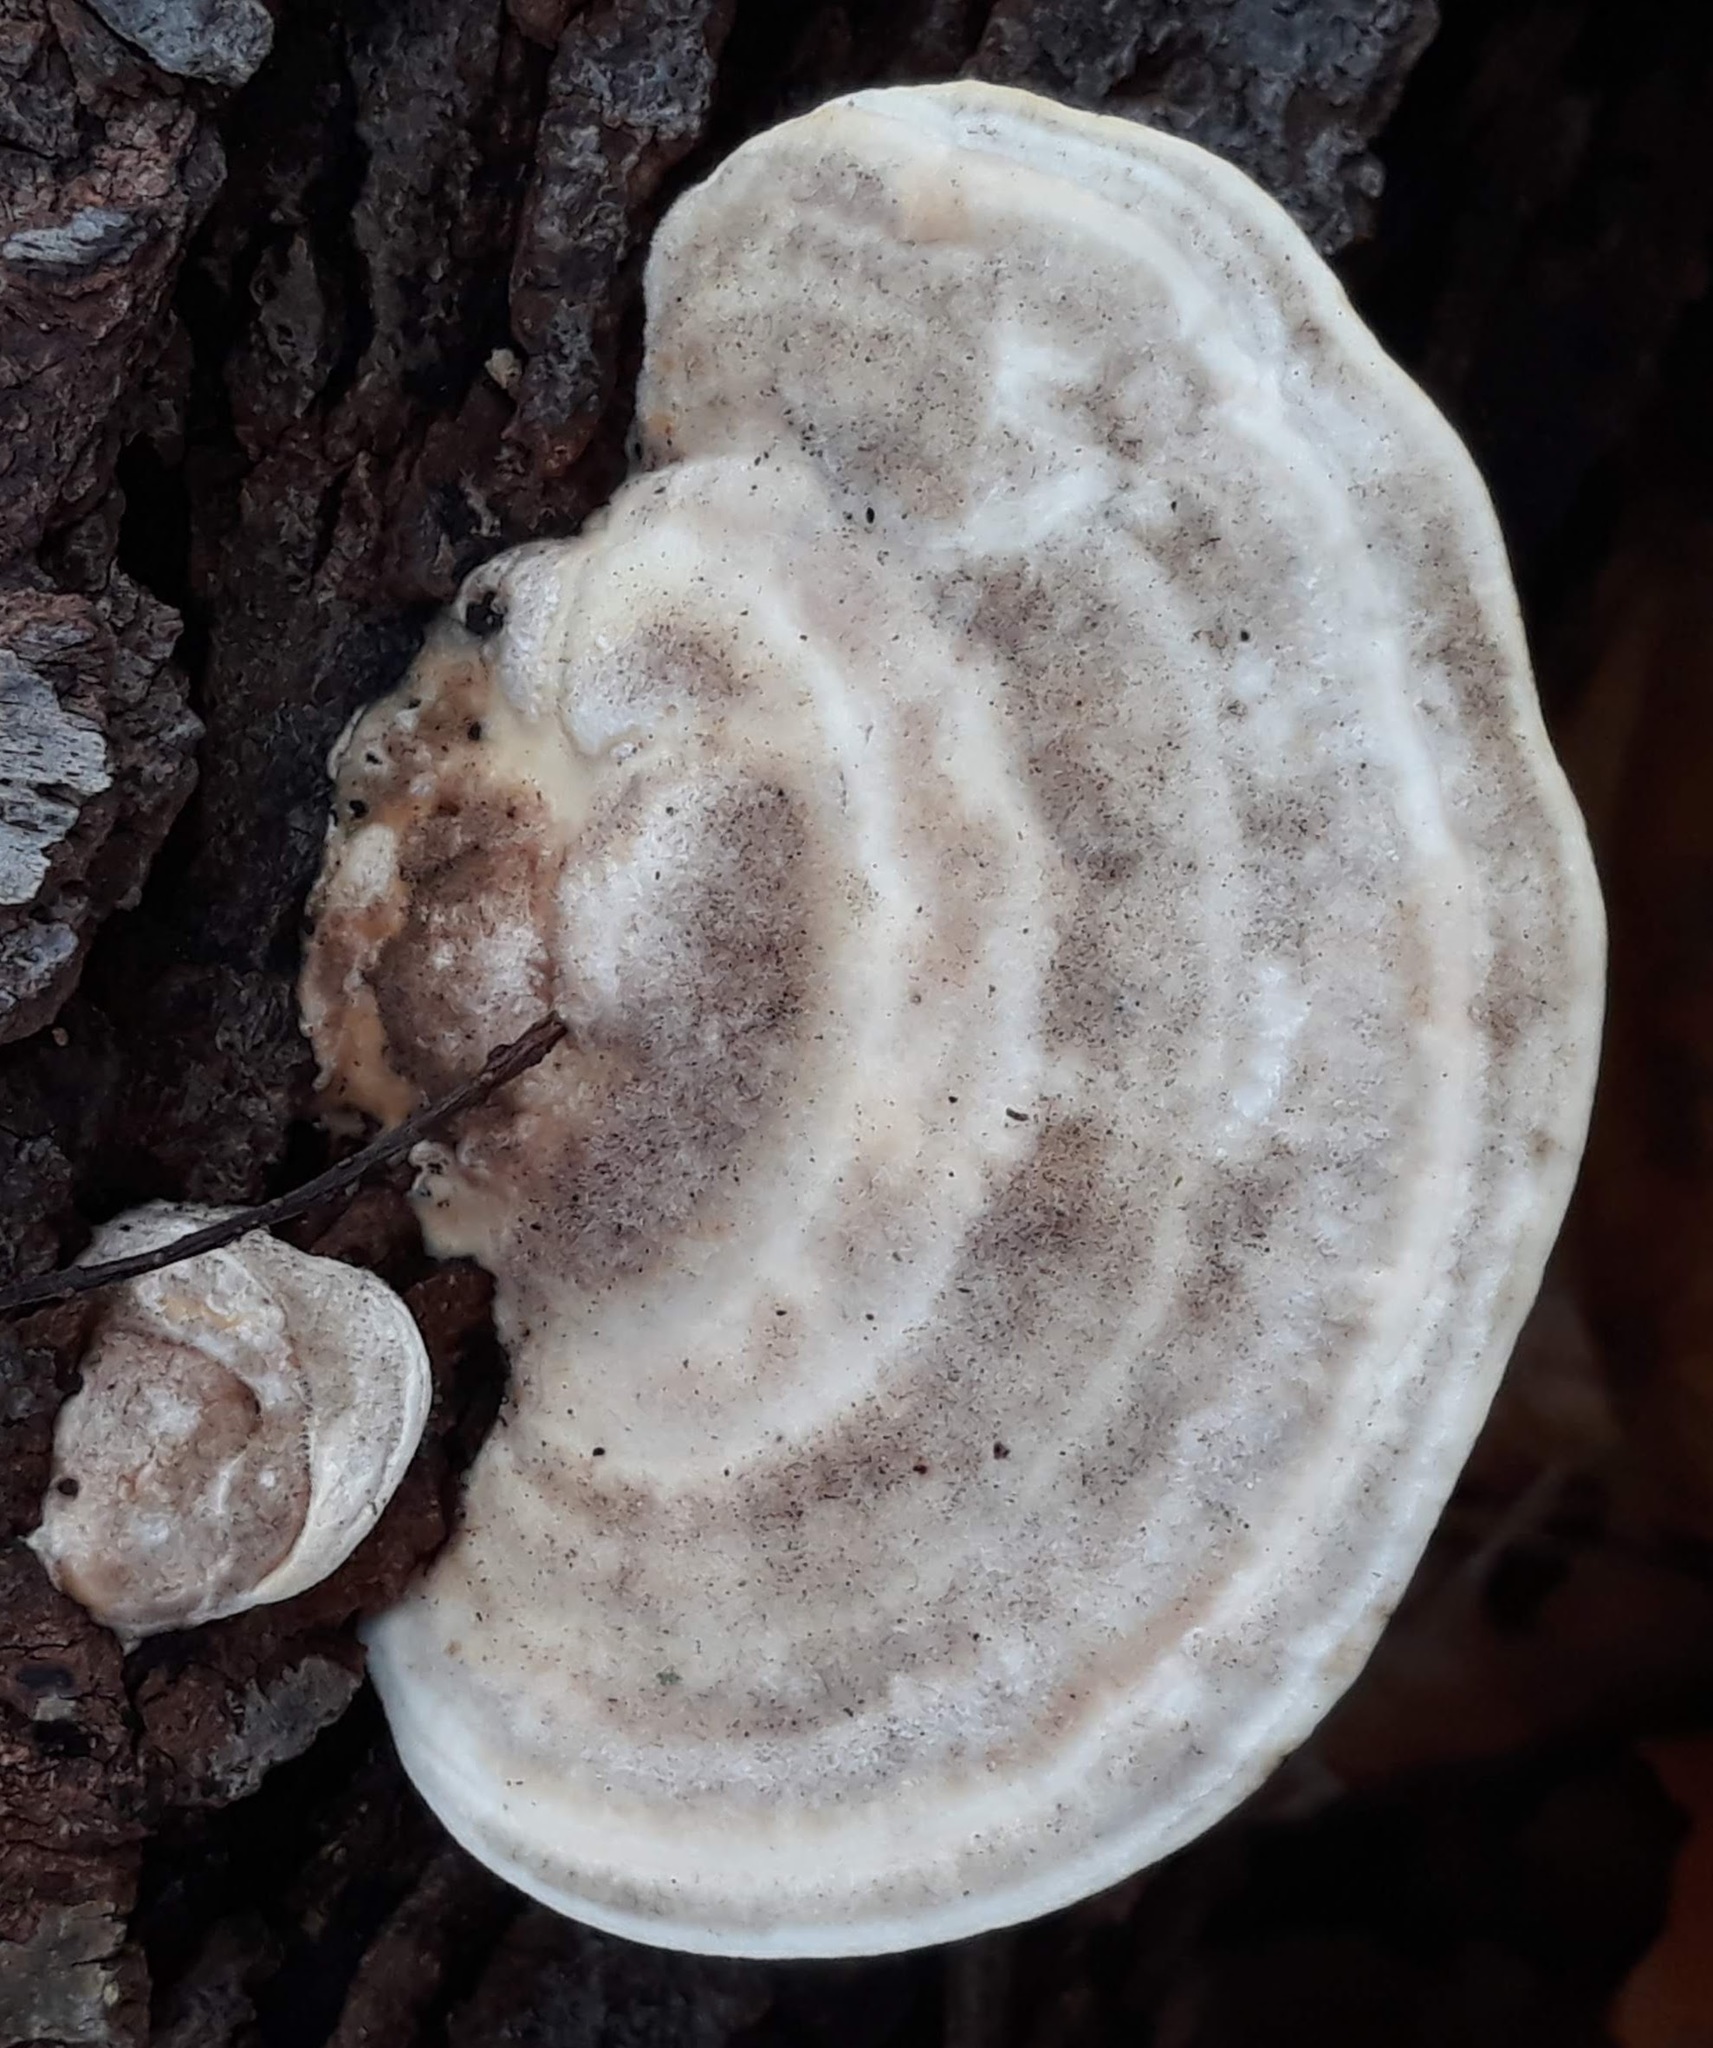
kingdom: Fungi
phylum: Basidiomycota
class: Agaricomycetes
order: Polyporales
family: Polyporaceae
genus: Trametes
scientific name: Trametes hirsuta
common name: Hairy bracket
